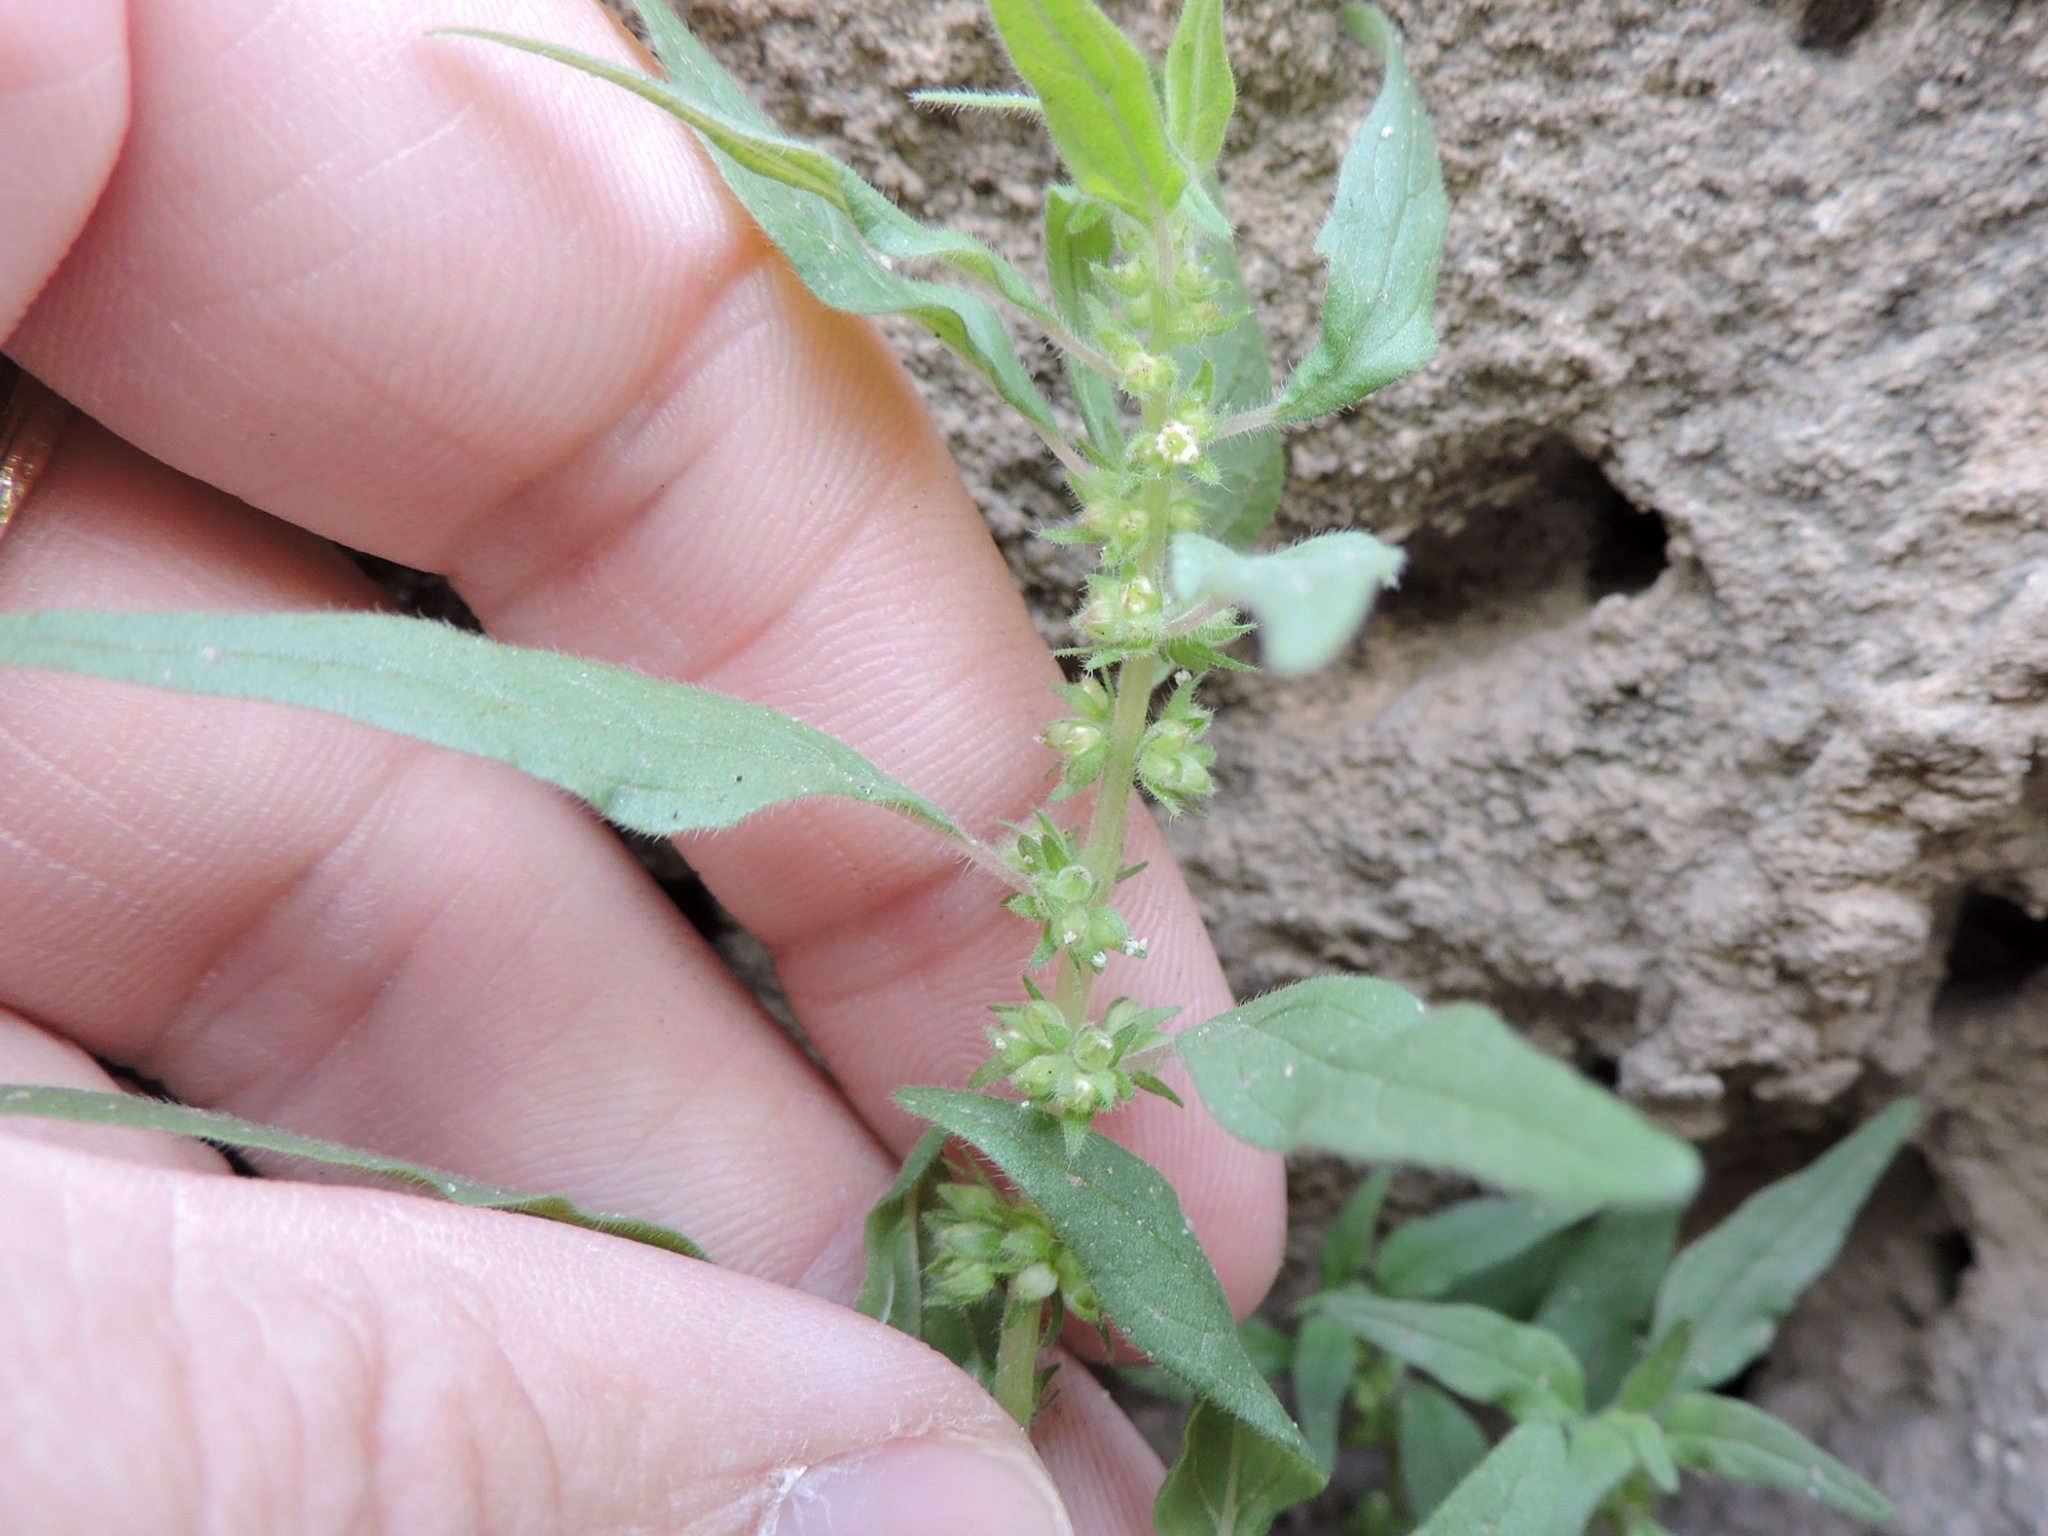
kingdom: Plantae
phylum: Tracheophyta
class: Magnoliopsida
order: Rosales
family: Urticaceae
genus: Parietaria
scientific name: Parietaria pensylvanica
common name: Pennsylvania pellitory
